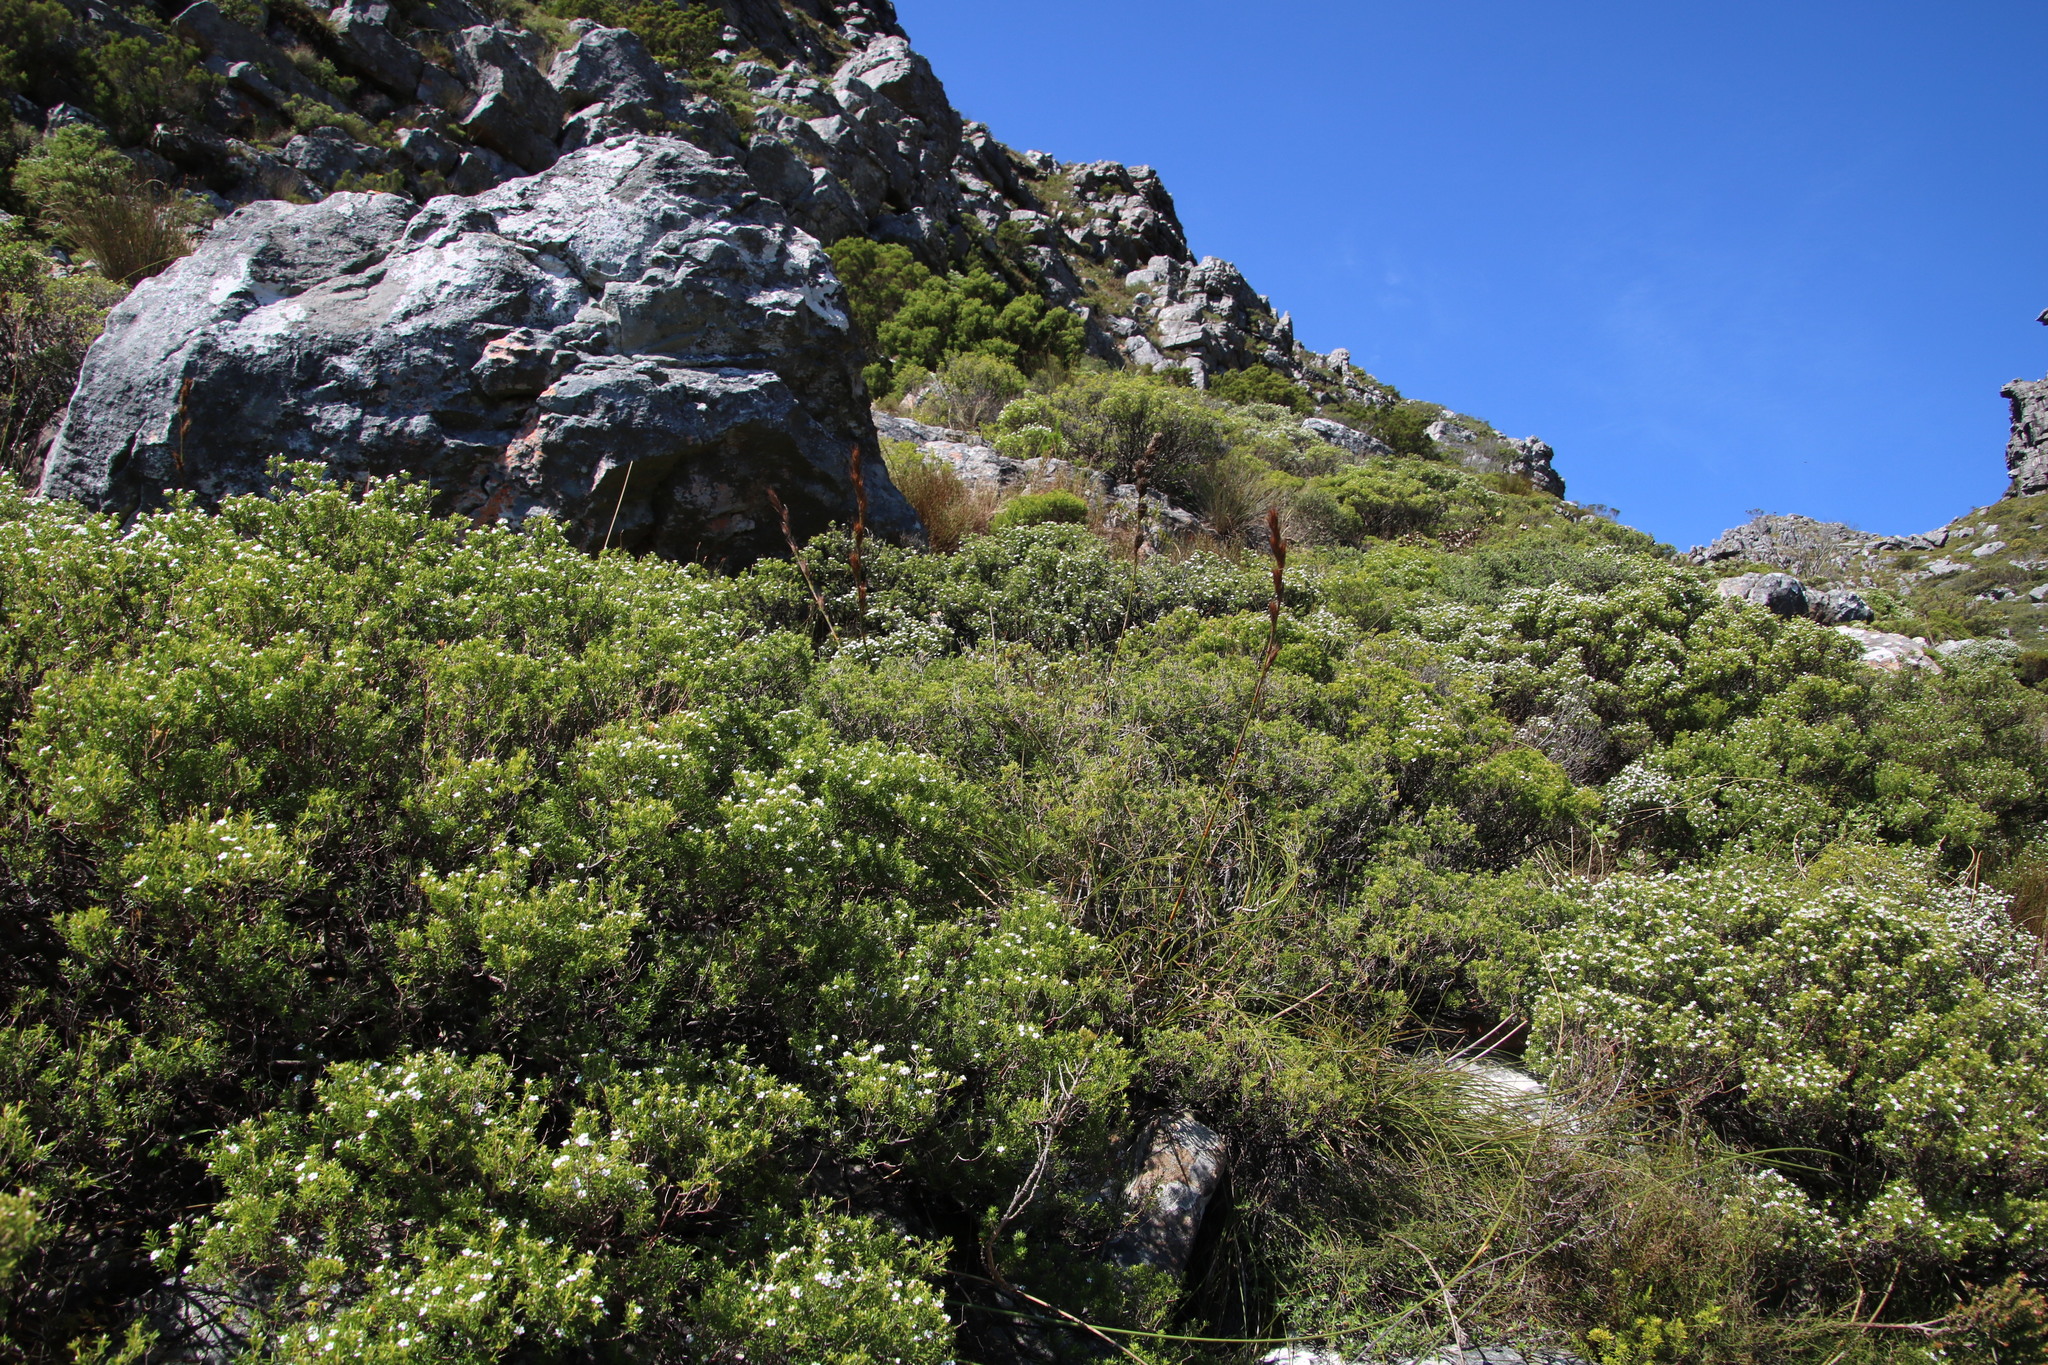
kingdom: Plantae
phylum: Tracheophyta
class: Liliopsida
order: Poales
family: Cyperaceae
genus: Tetraria
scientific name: Tetraria bromoides
